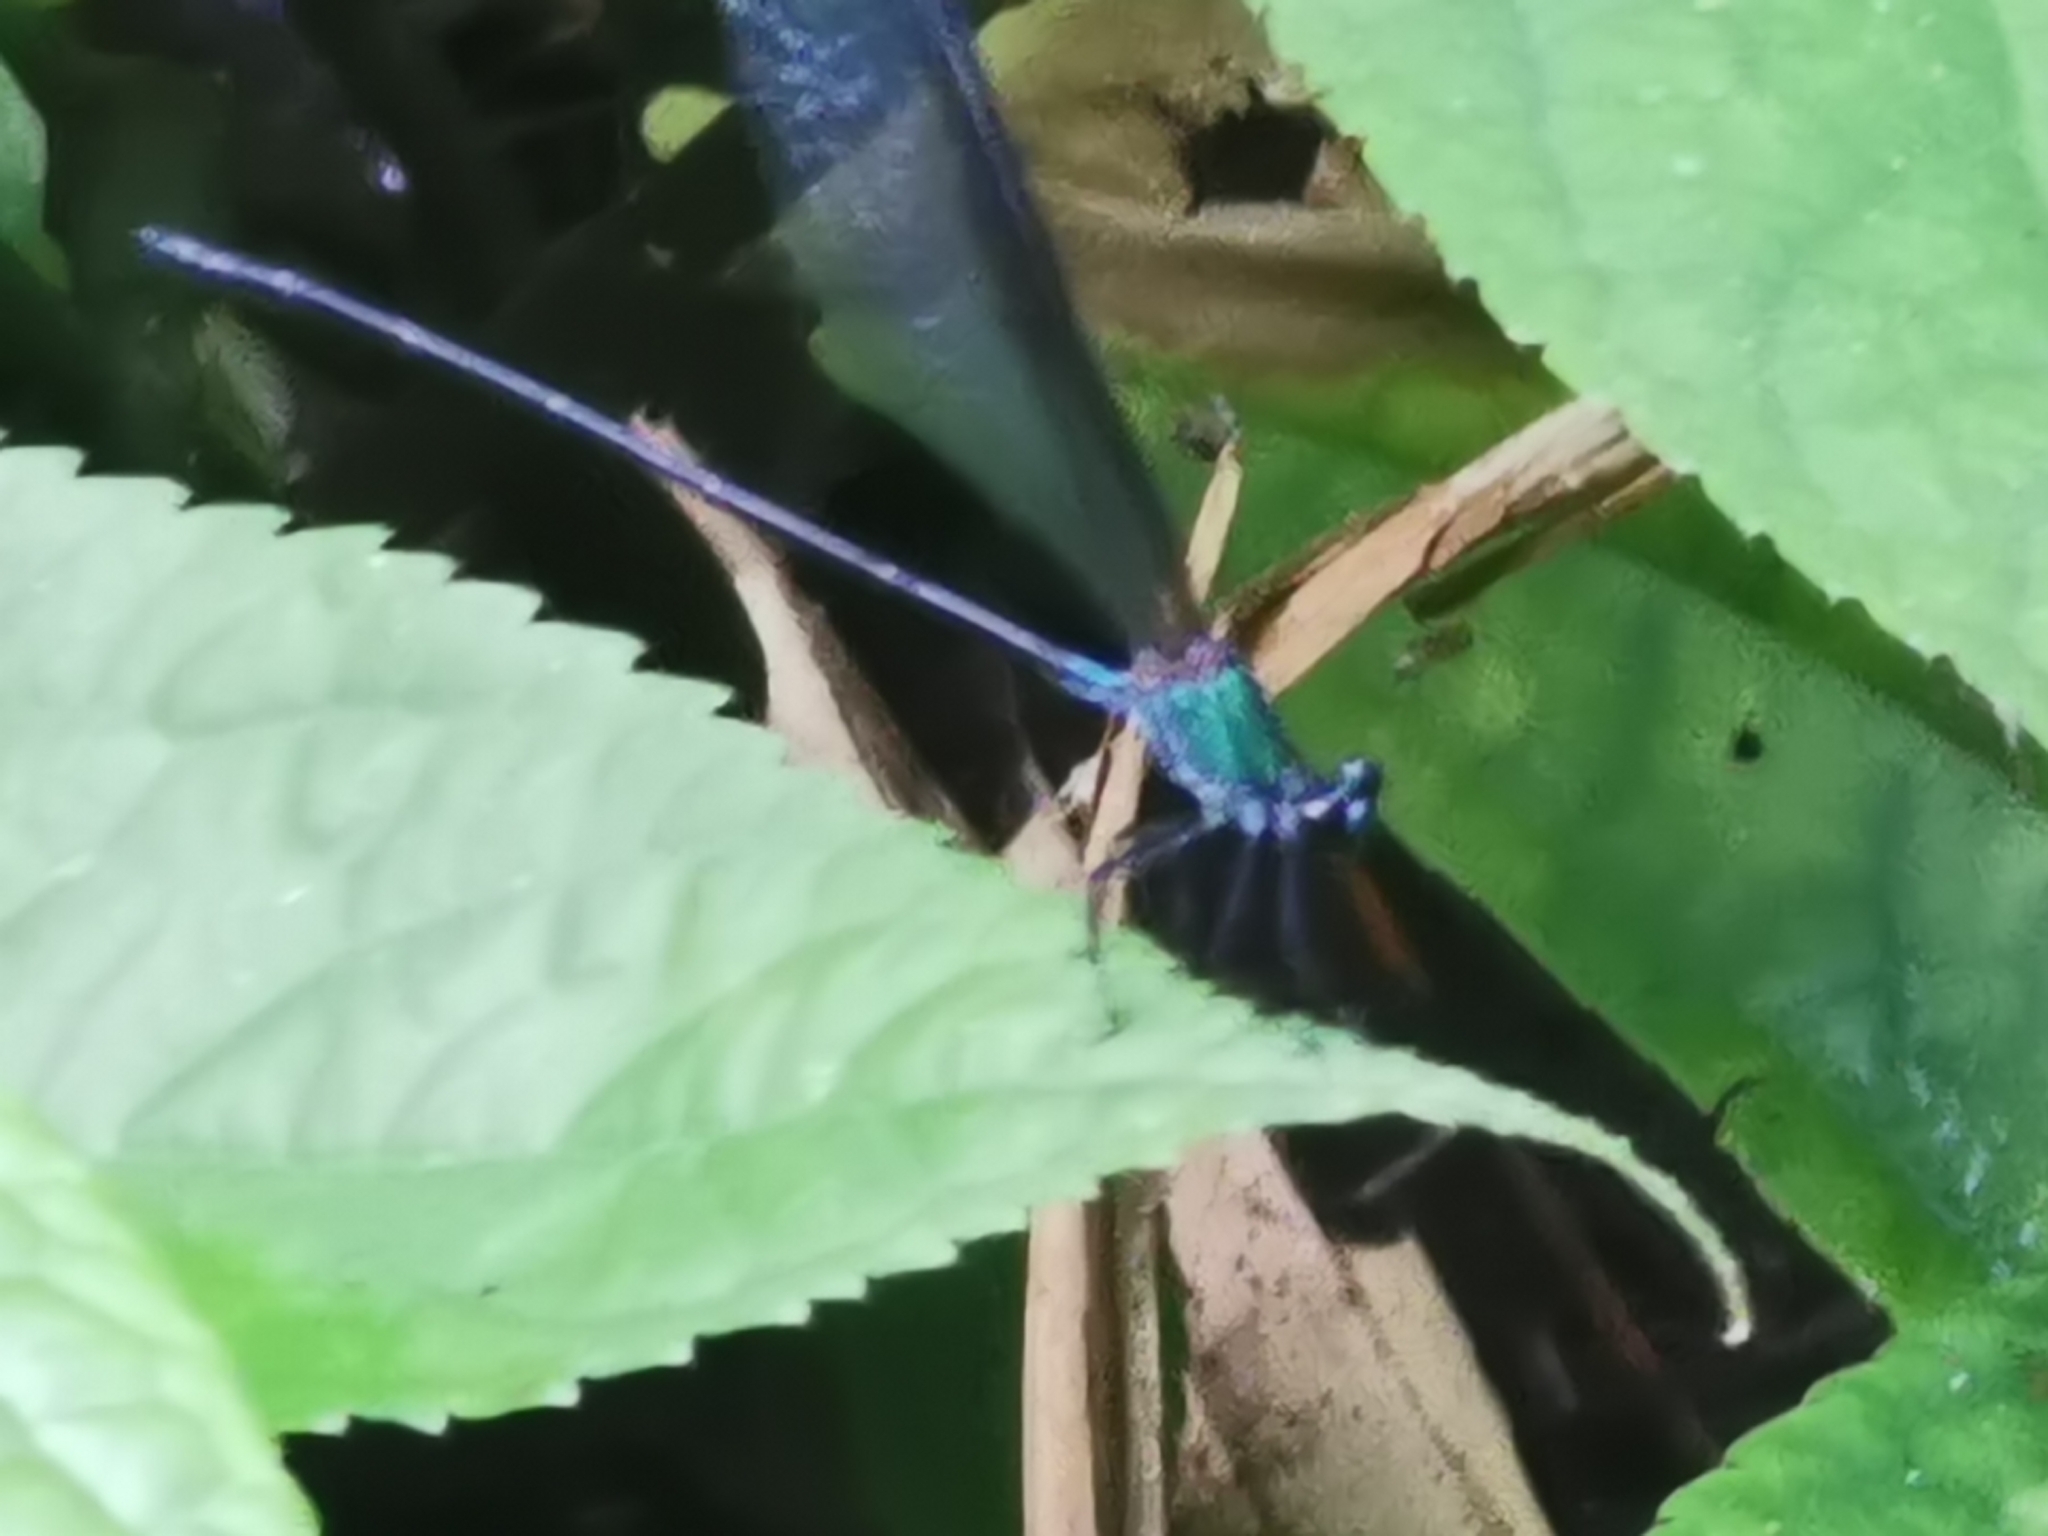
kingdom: Animalia
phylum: Arthropoda
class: Insecta
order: Odonata
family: Calopterygidae
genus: Psolodesmus
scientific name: Psolodesmus mandarinus
